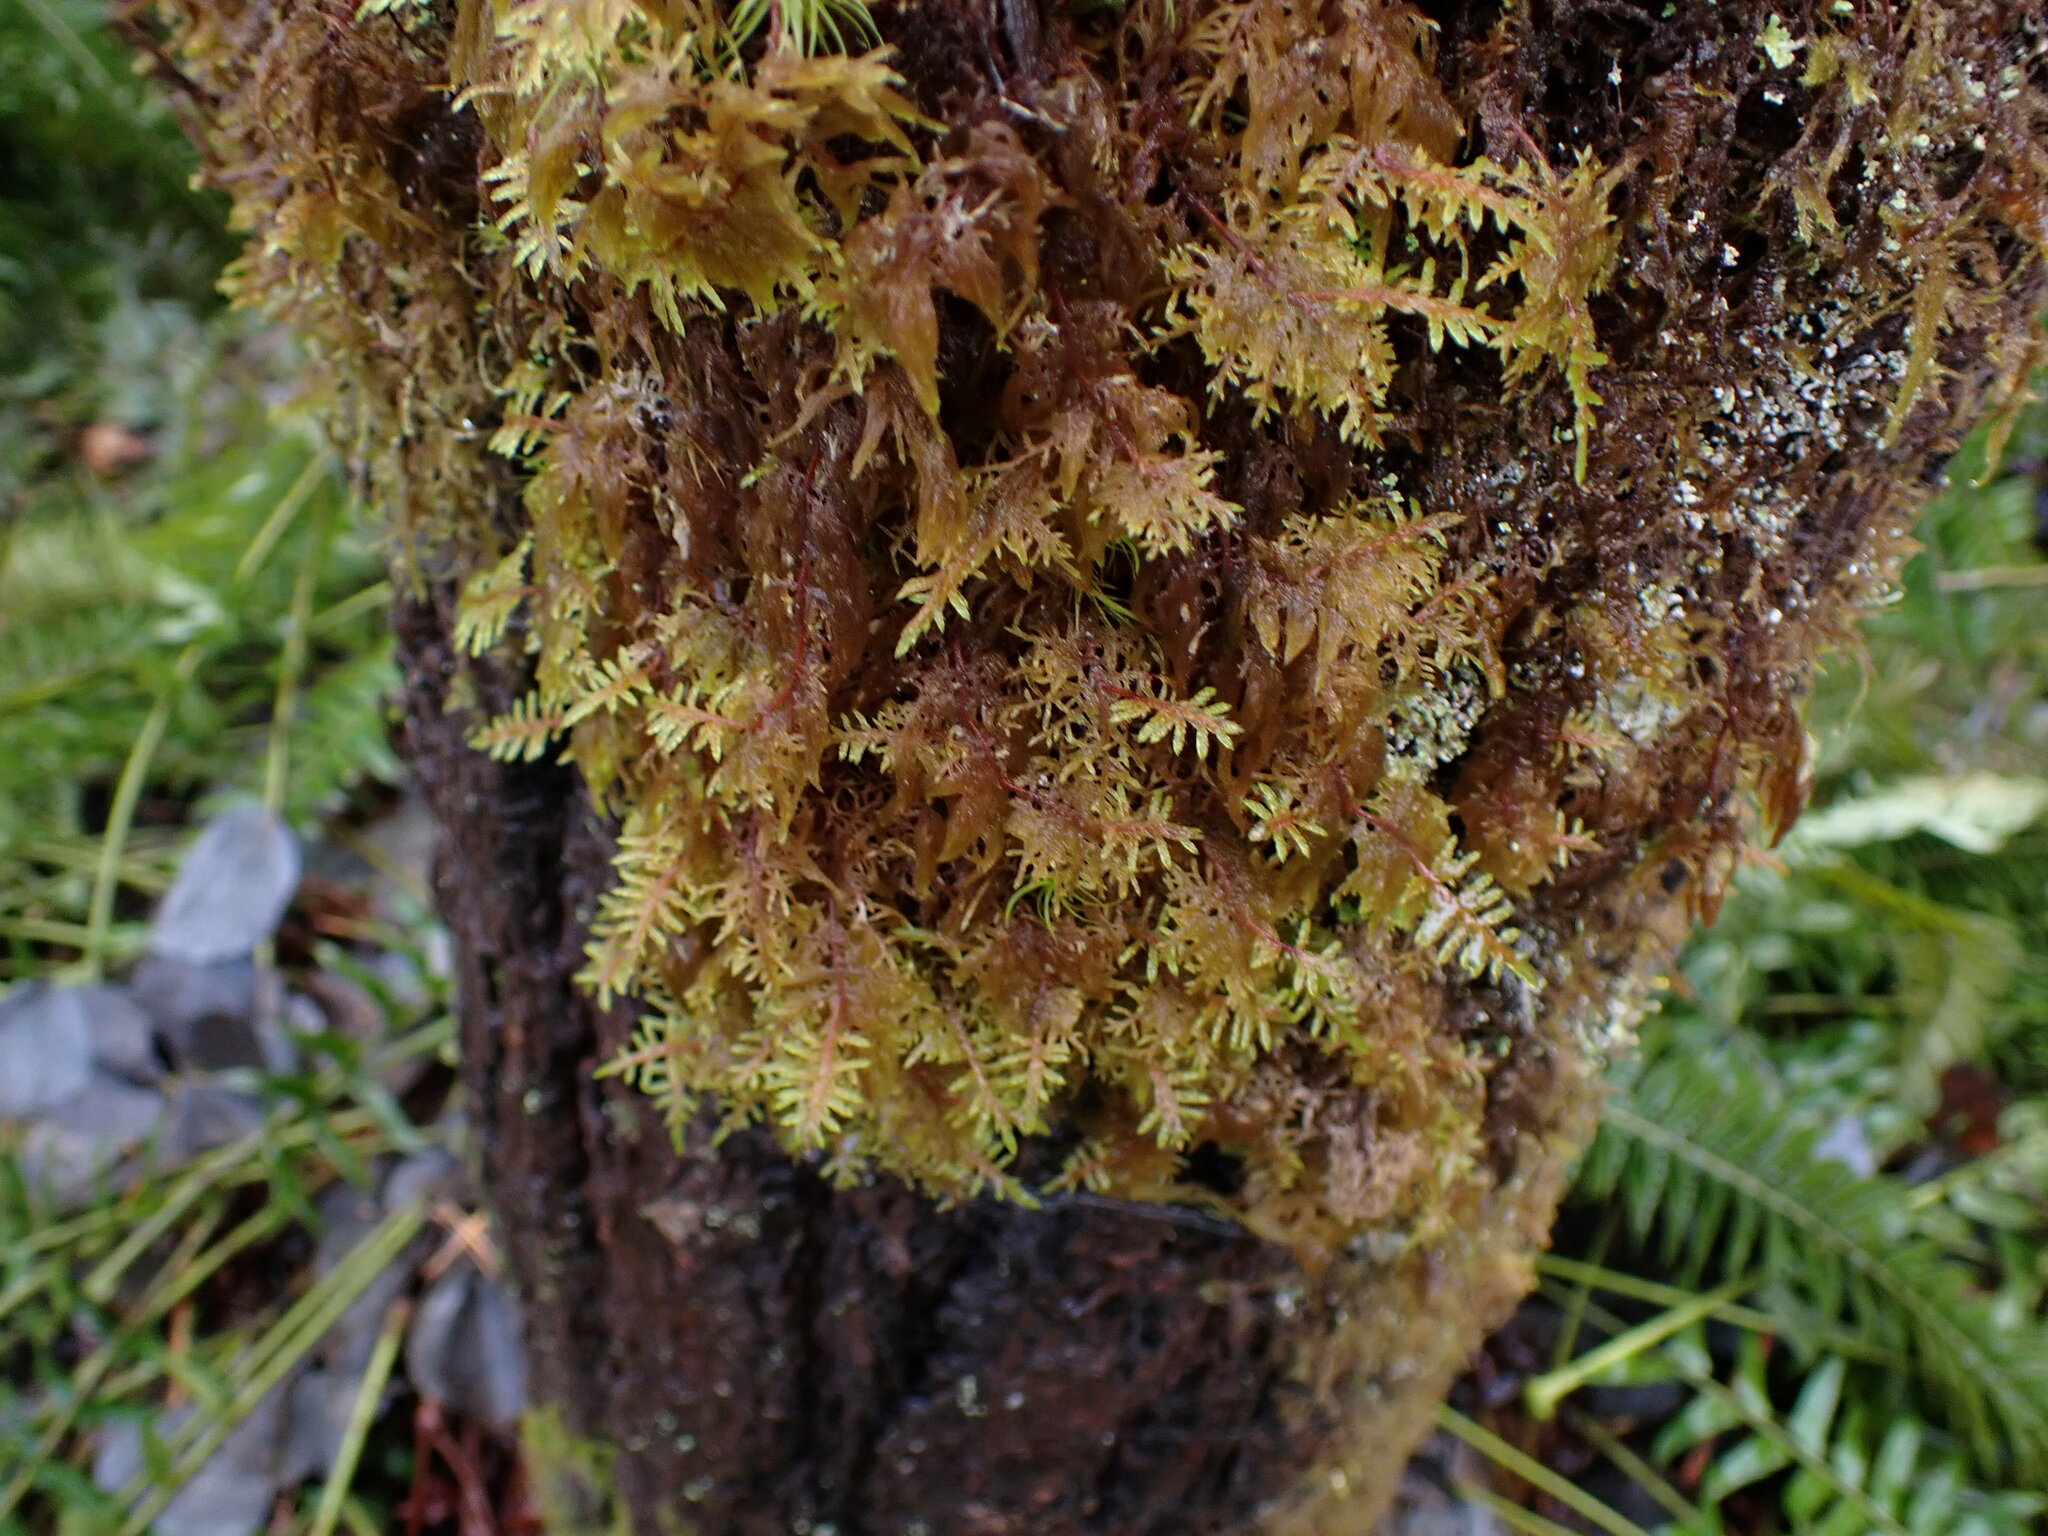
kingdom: Plantae
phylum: Bryophyta
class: Bryopsida
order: Hypnales
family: Hylocomiaceae
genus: Hylocomium
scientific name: Hylocomium splendens
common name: Stairstep moss
